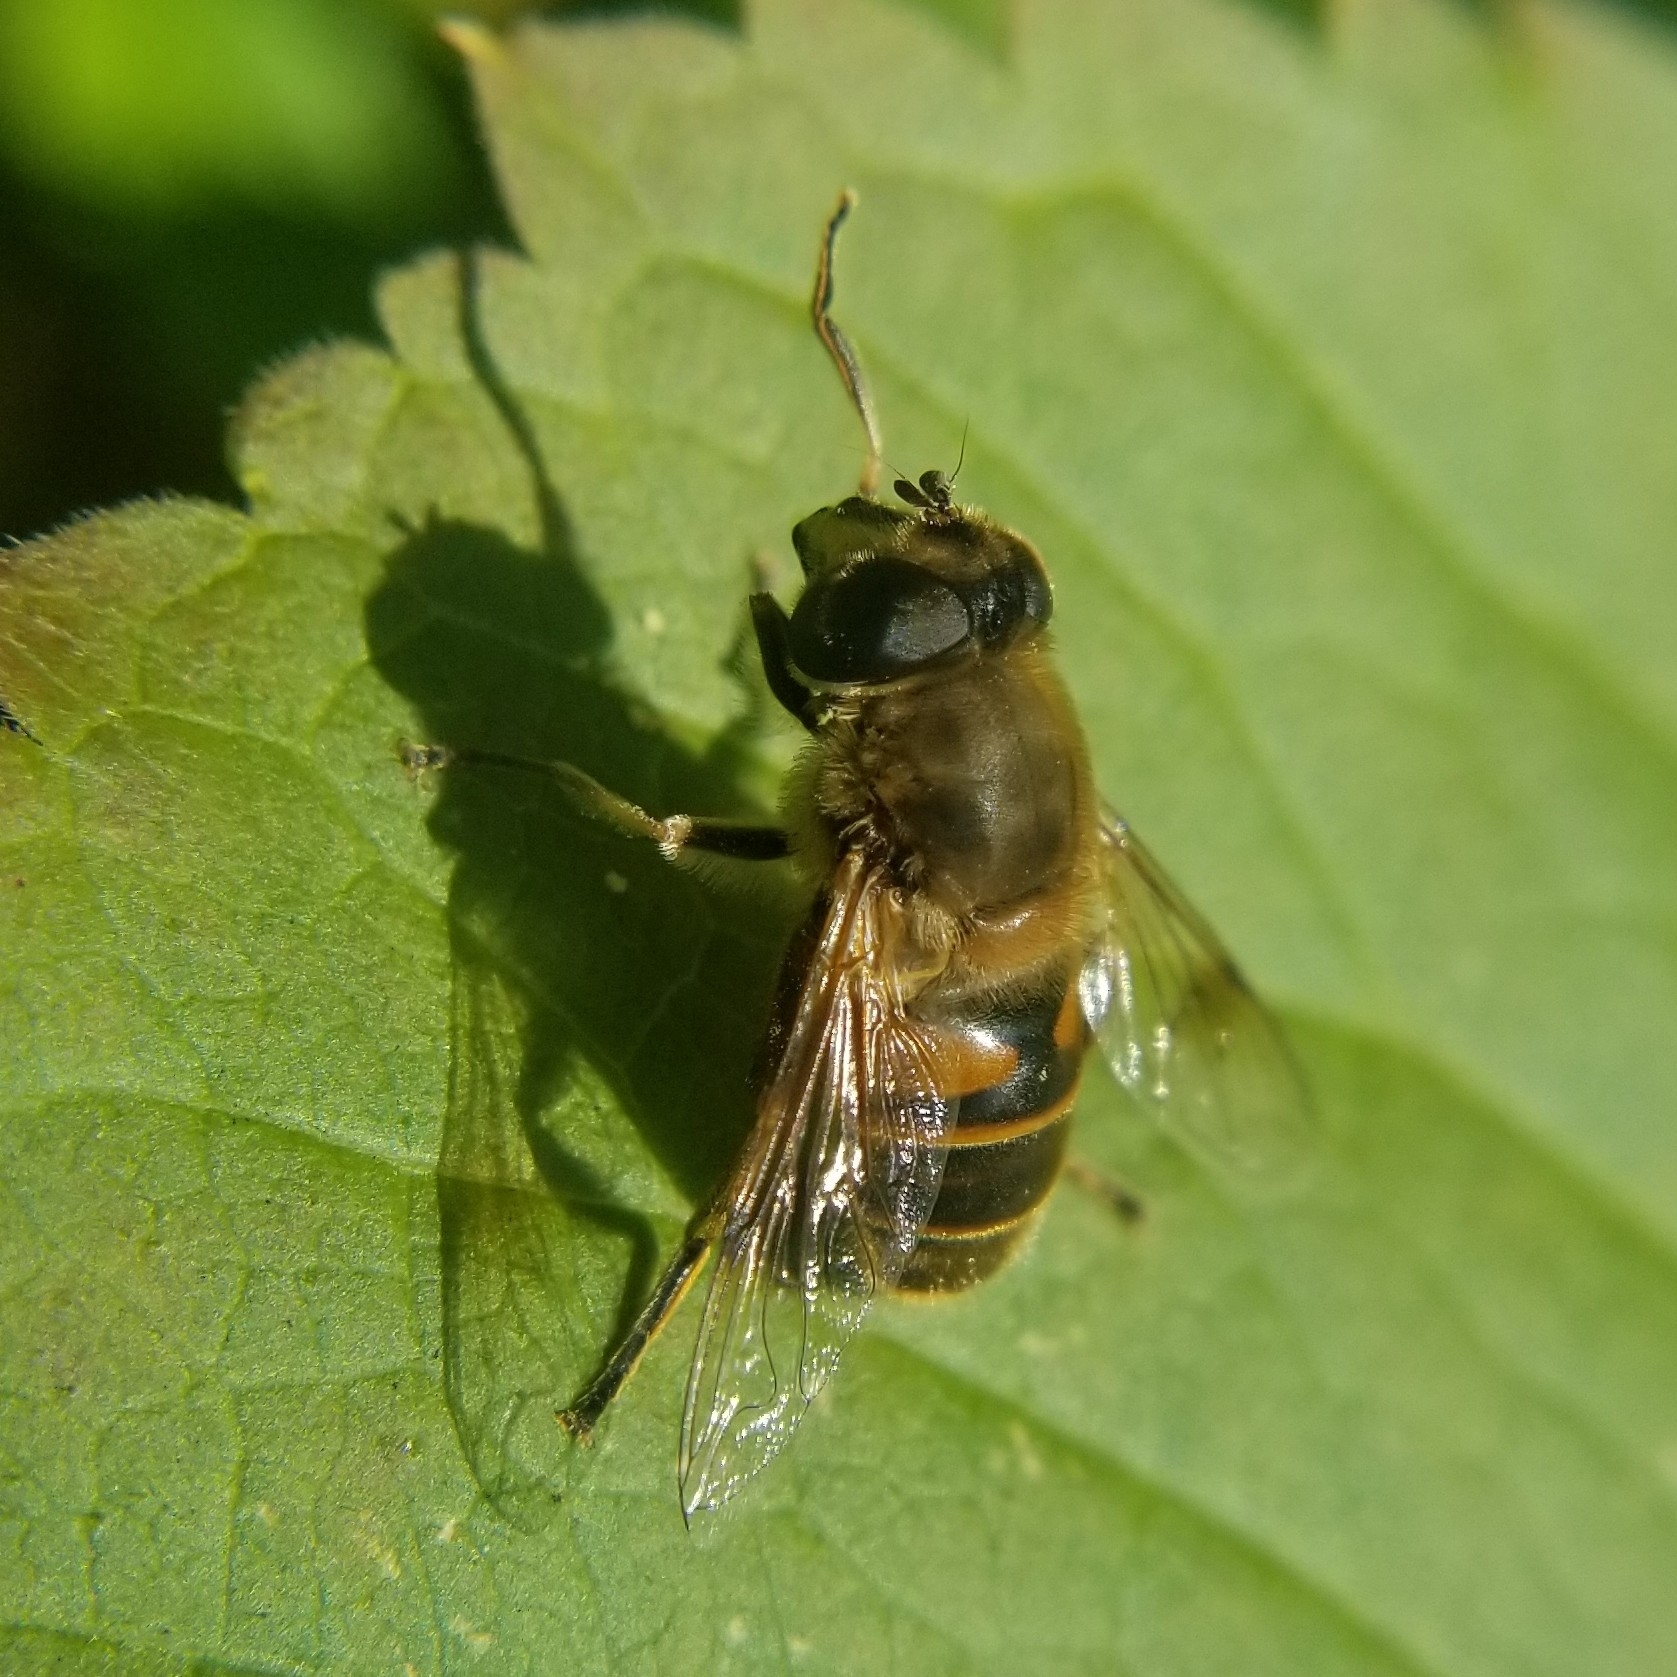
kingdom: Animalia
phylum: Arthropoda
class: Insecta
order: Diptera
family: Syrphidae
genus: Eristalis
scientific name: Eristalis tenax
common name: Drone fly
